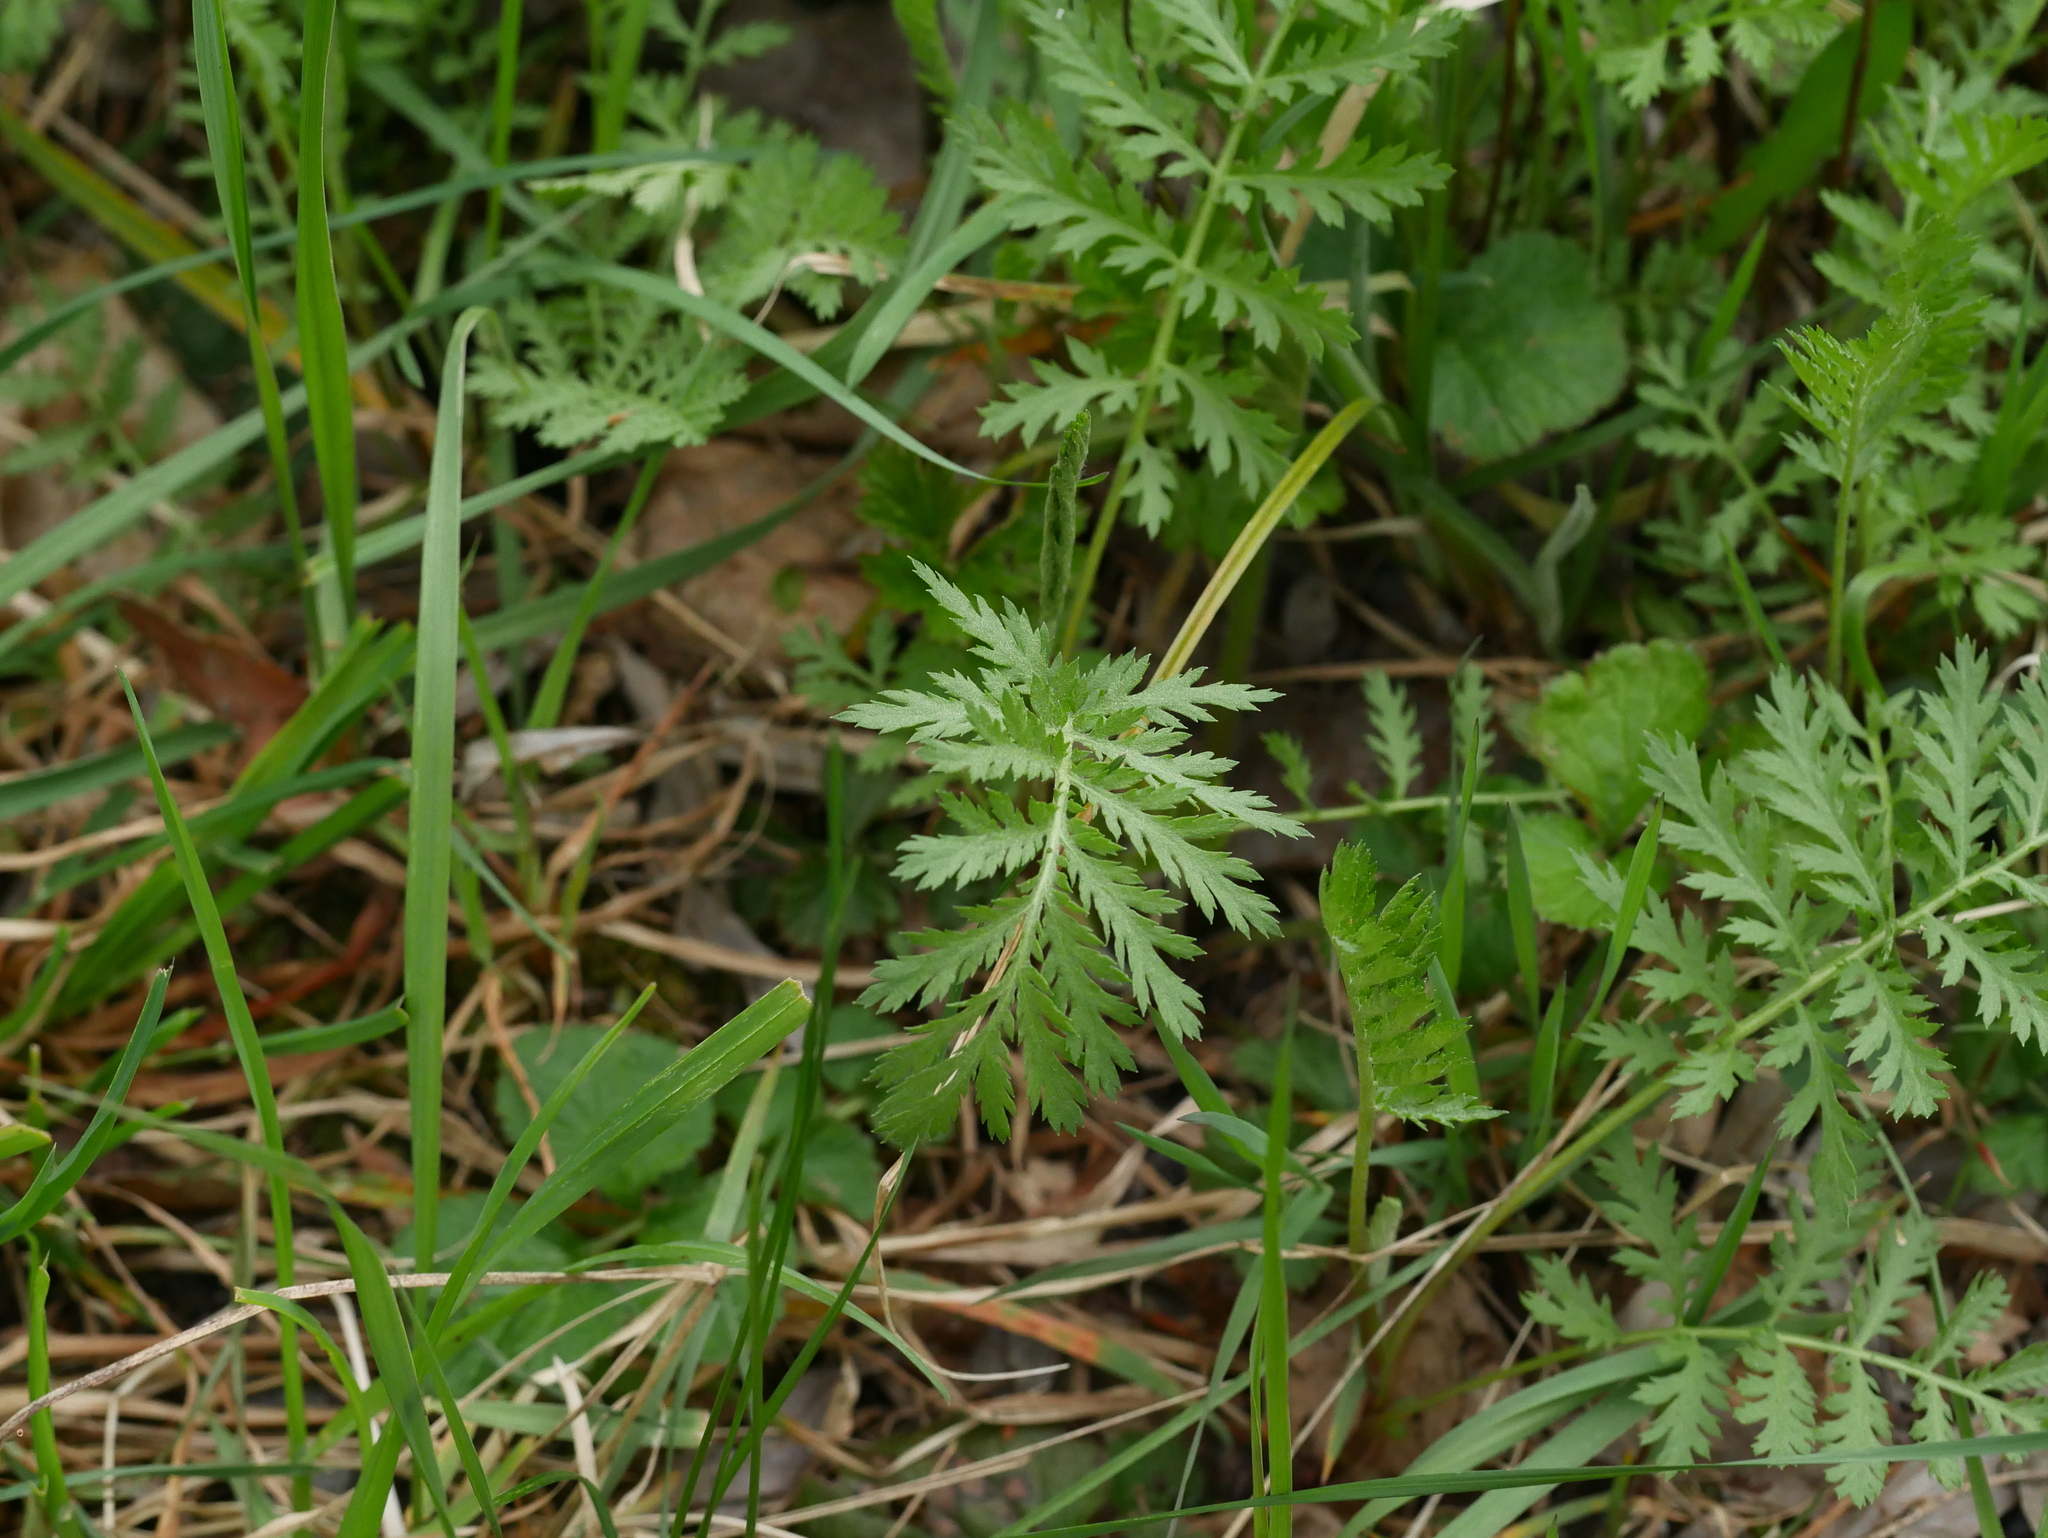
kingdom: Plantae
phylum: Tracheophyta
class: Magnoliopsida
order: Asterales
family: Asteraceae
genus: Tanacetum
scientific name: Tanacetum vulgare
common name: Common tansy
